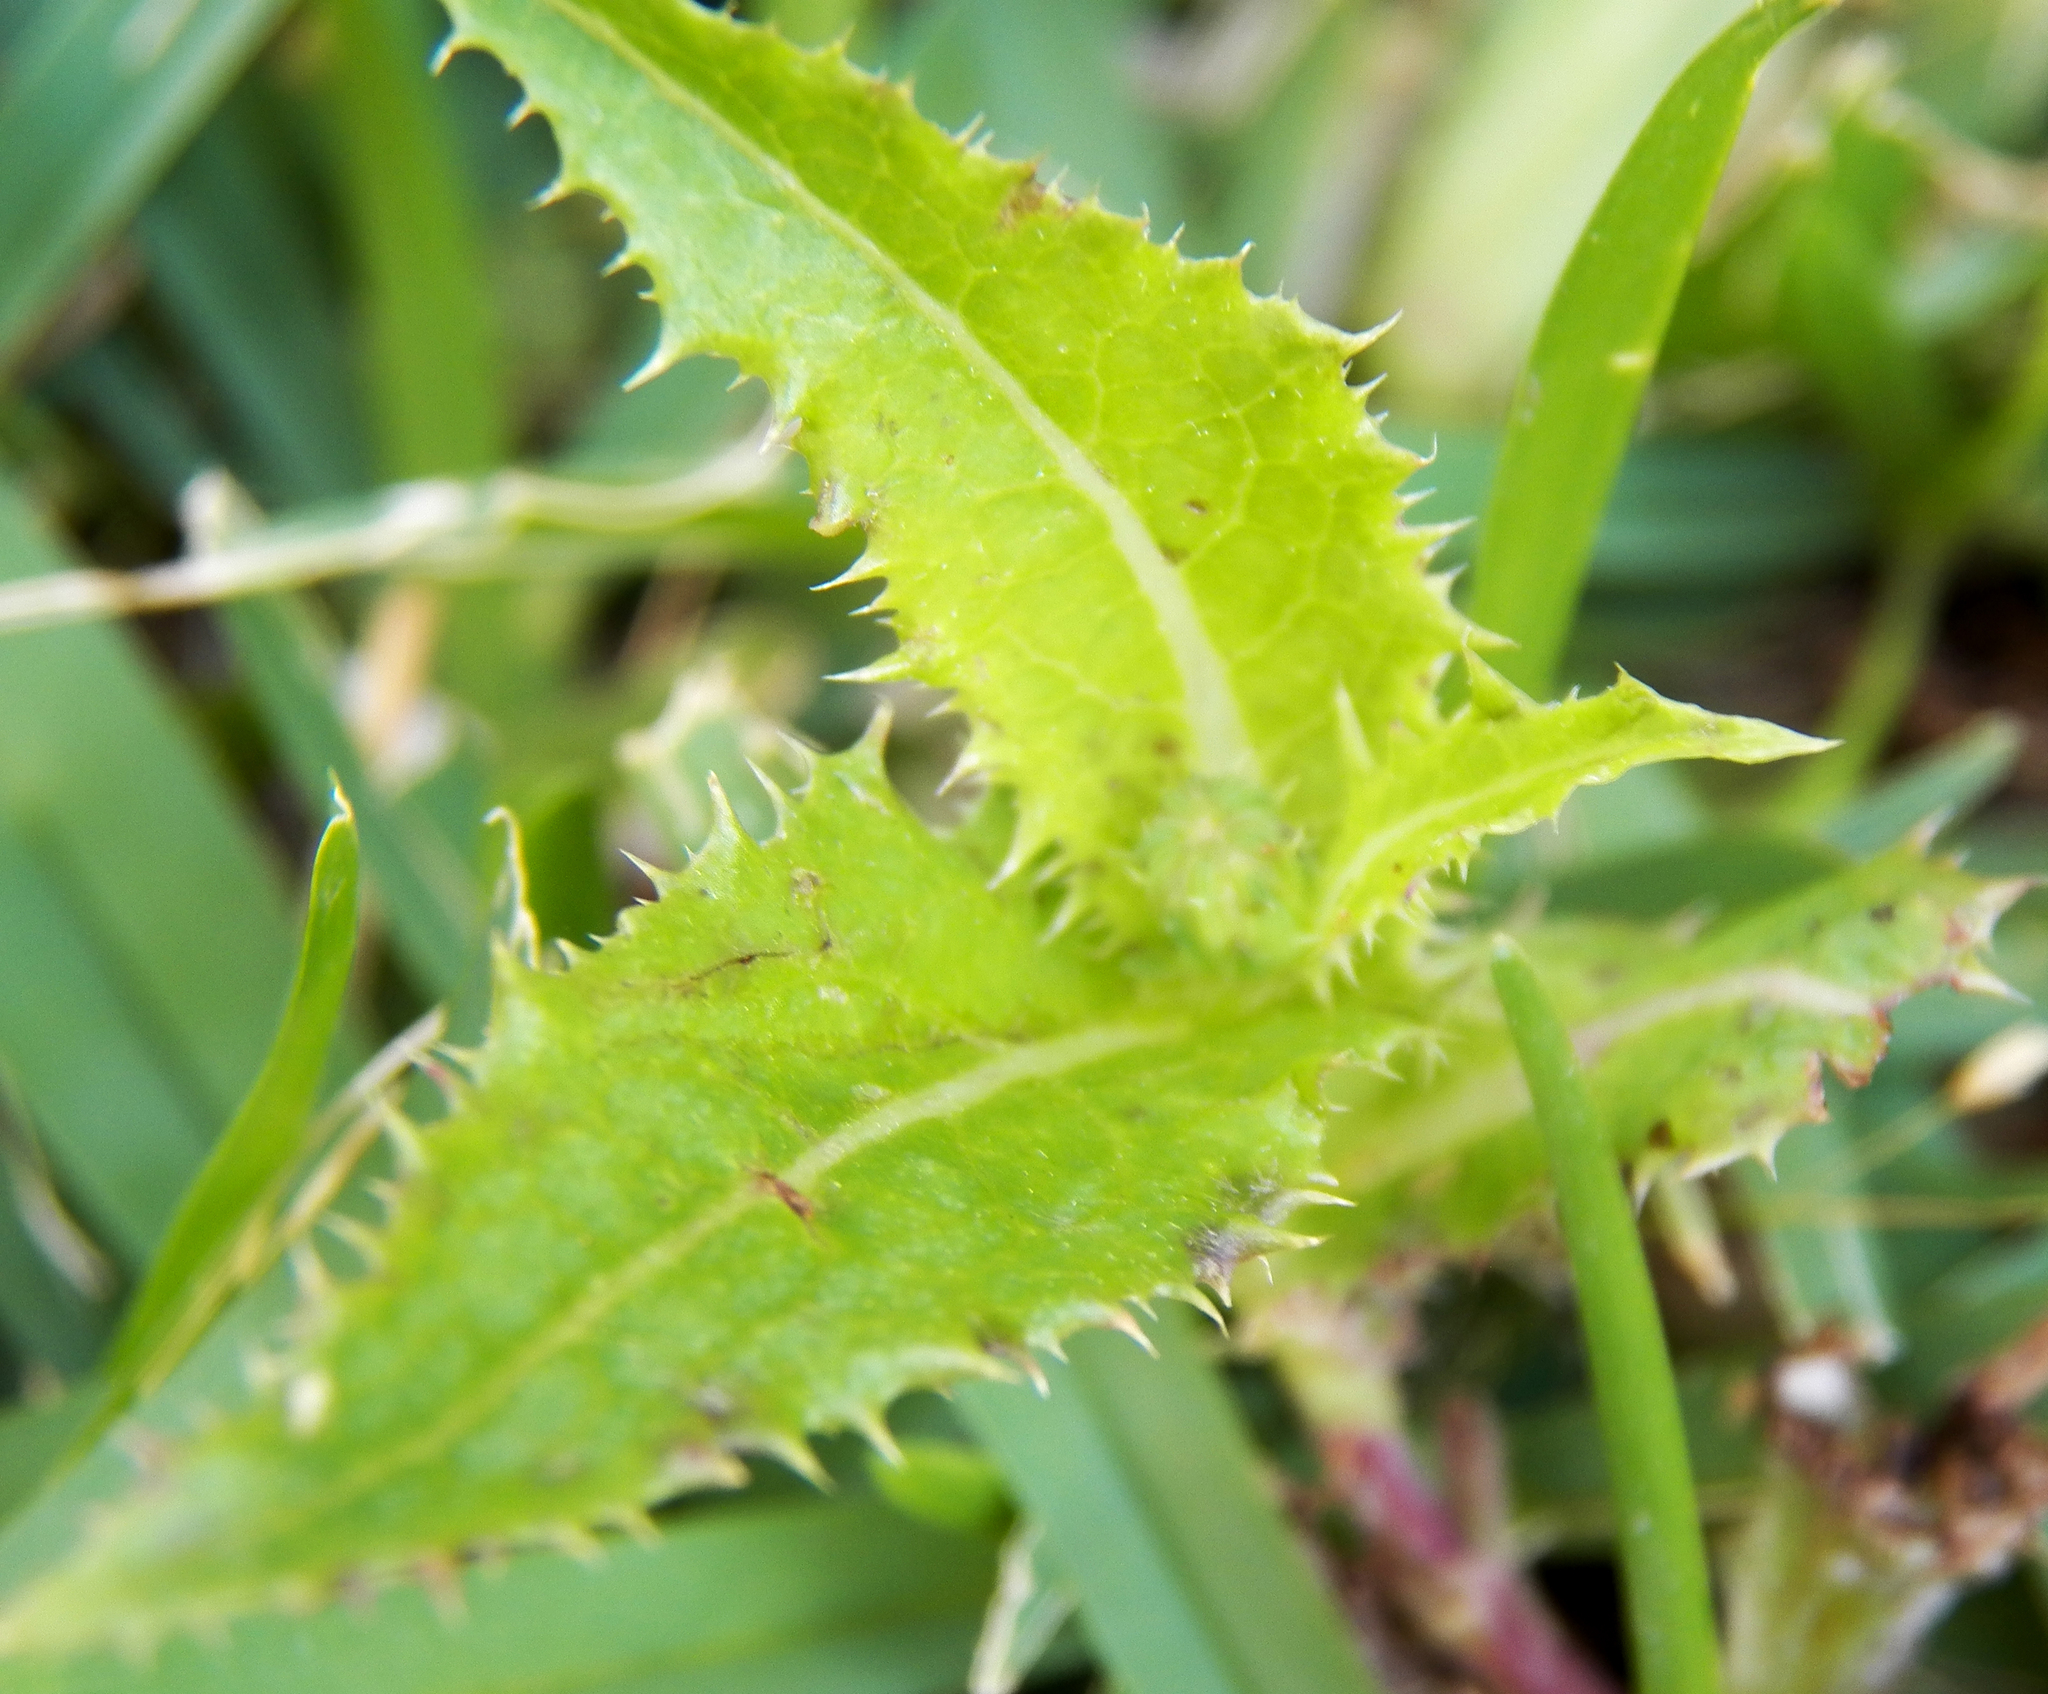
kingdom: Plantae
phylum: Tracheophyta
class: Magnoliopsida
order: Asterales
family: Asteraceae
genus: Sonchus
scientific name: Sonchus asper
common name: Prickly sow-thistle
